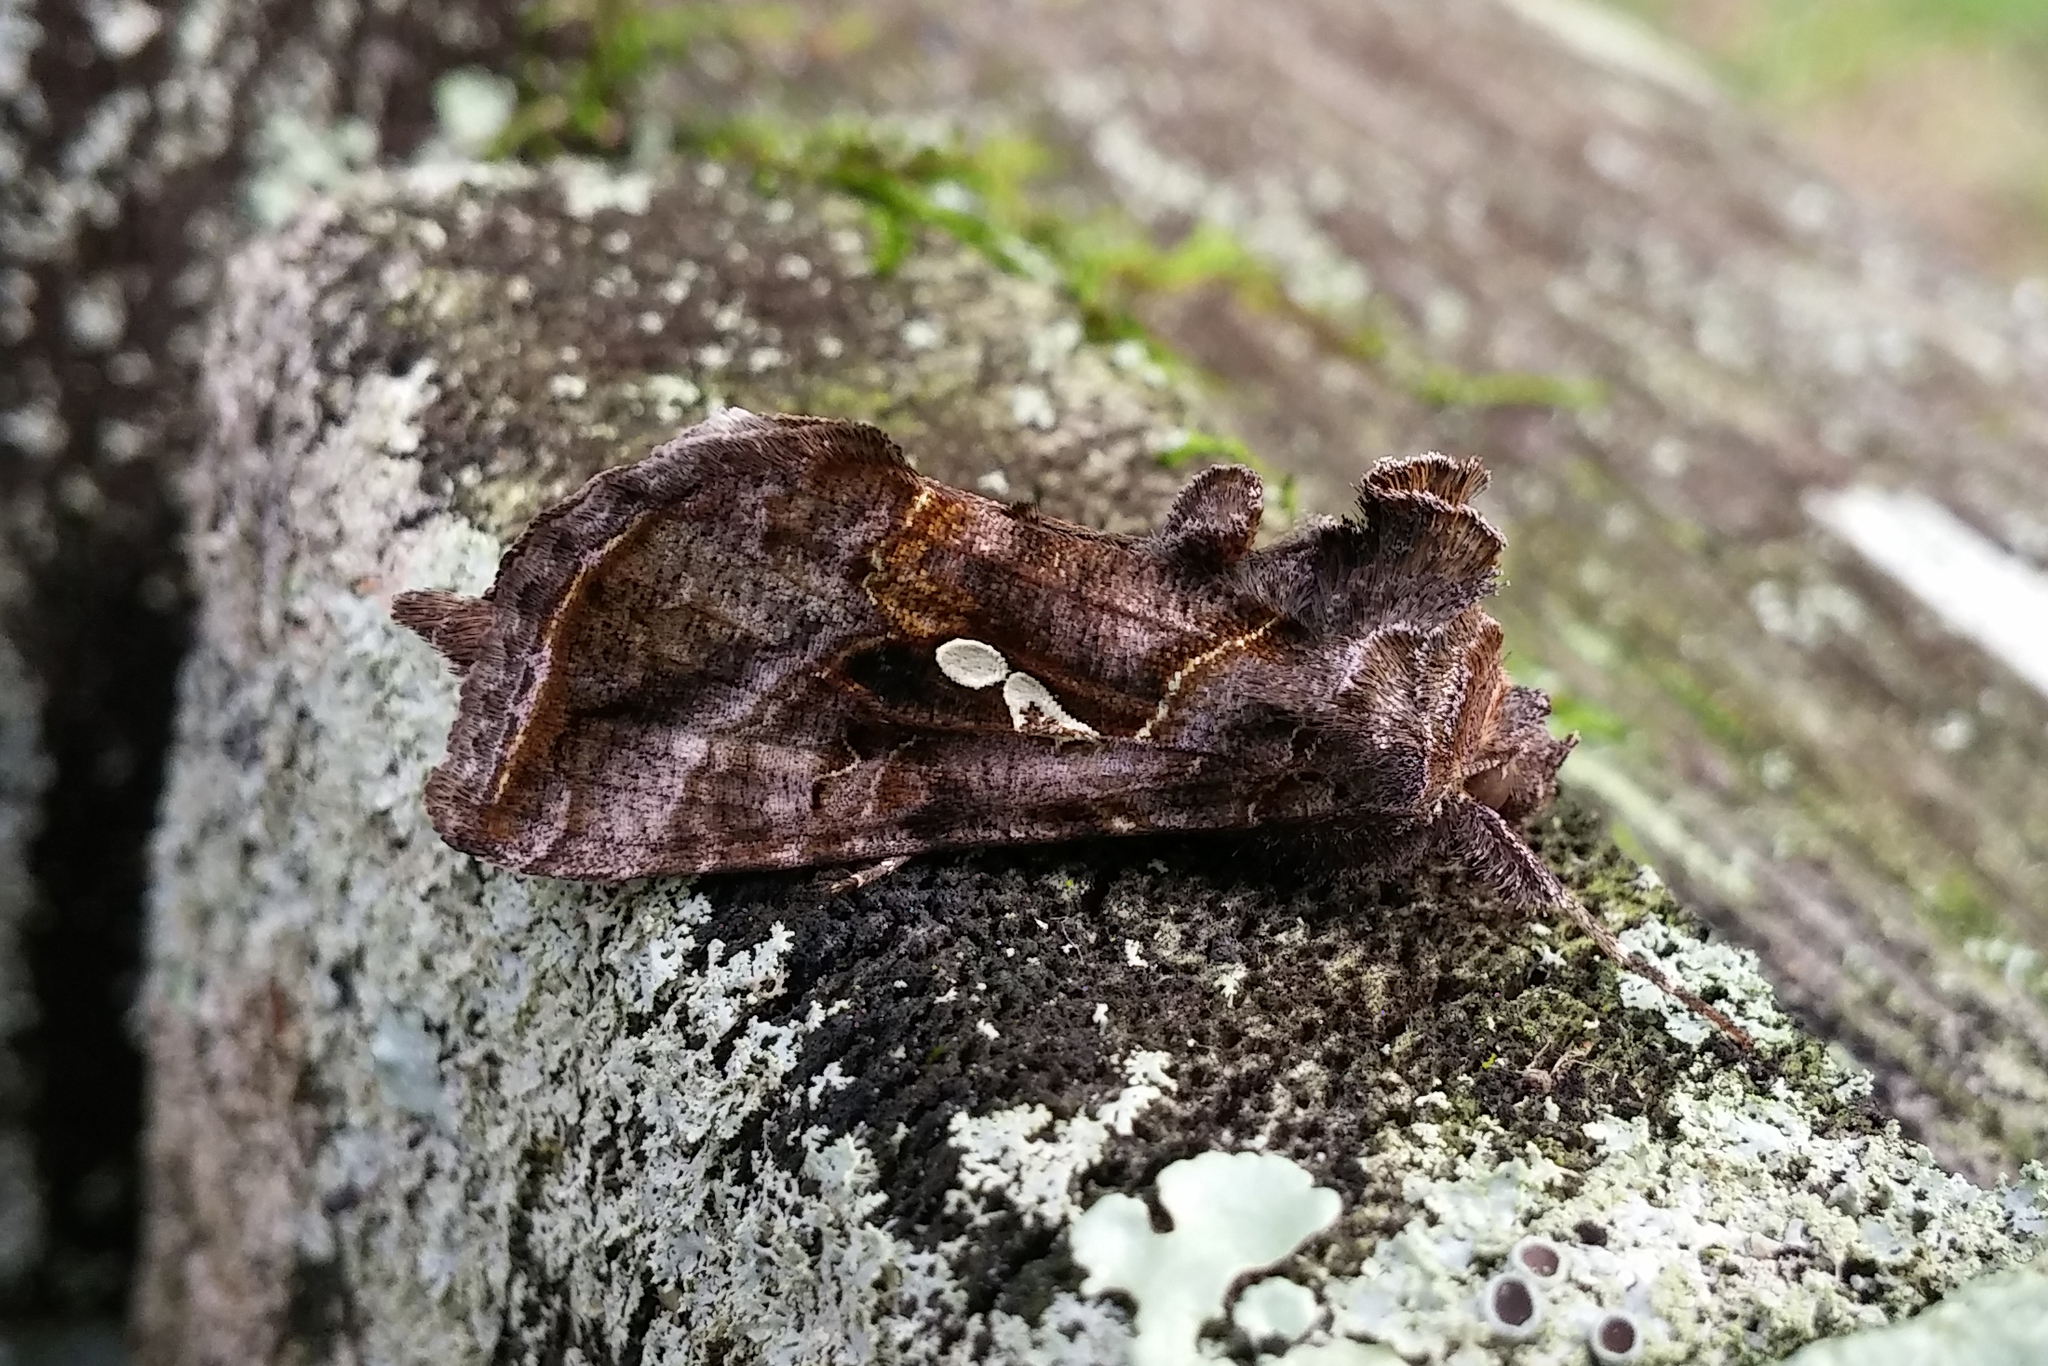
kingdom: Animalia
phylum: Arthropoda
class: Insecta
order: Lepidoptera
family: Noctuidae
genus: Autographa
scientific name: Autographa precationis
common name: Common looper moth
